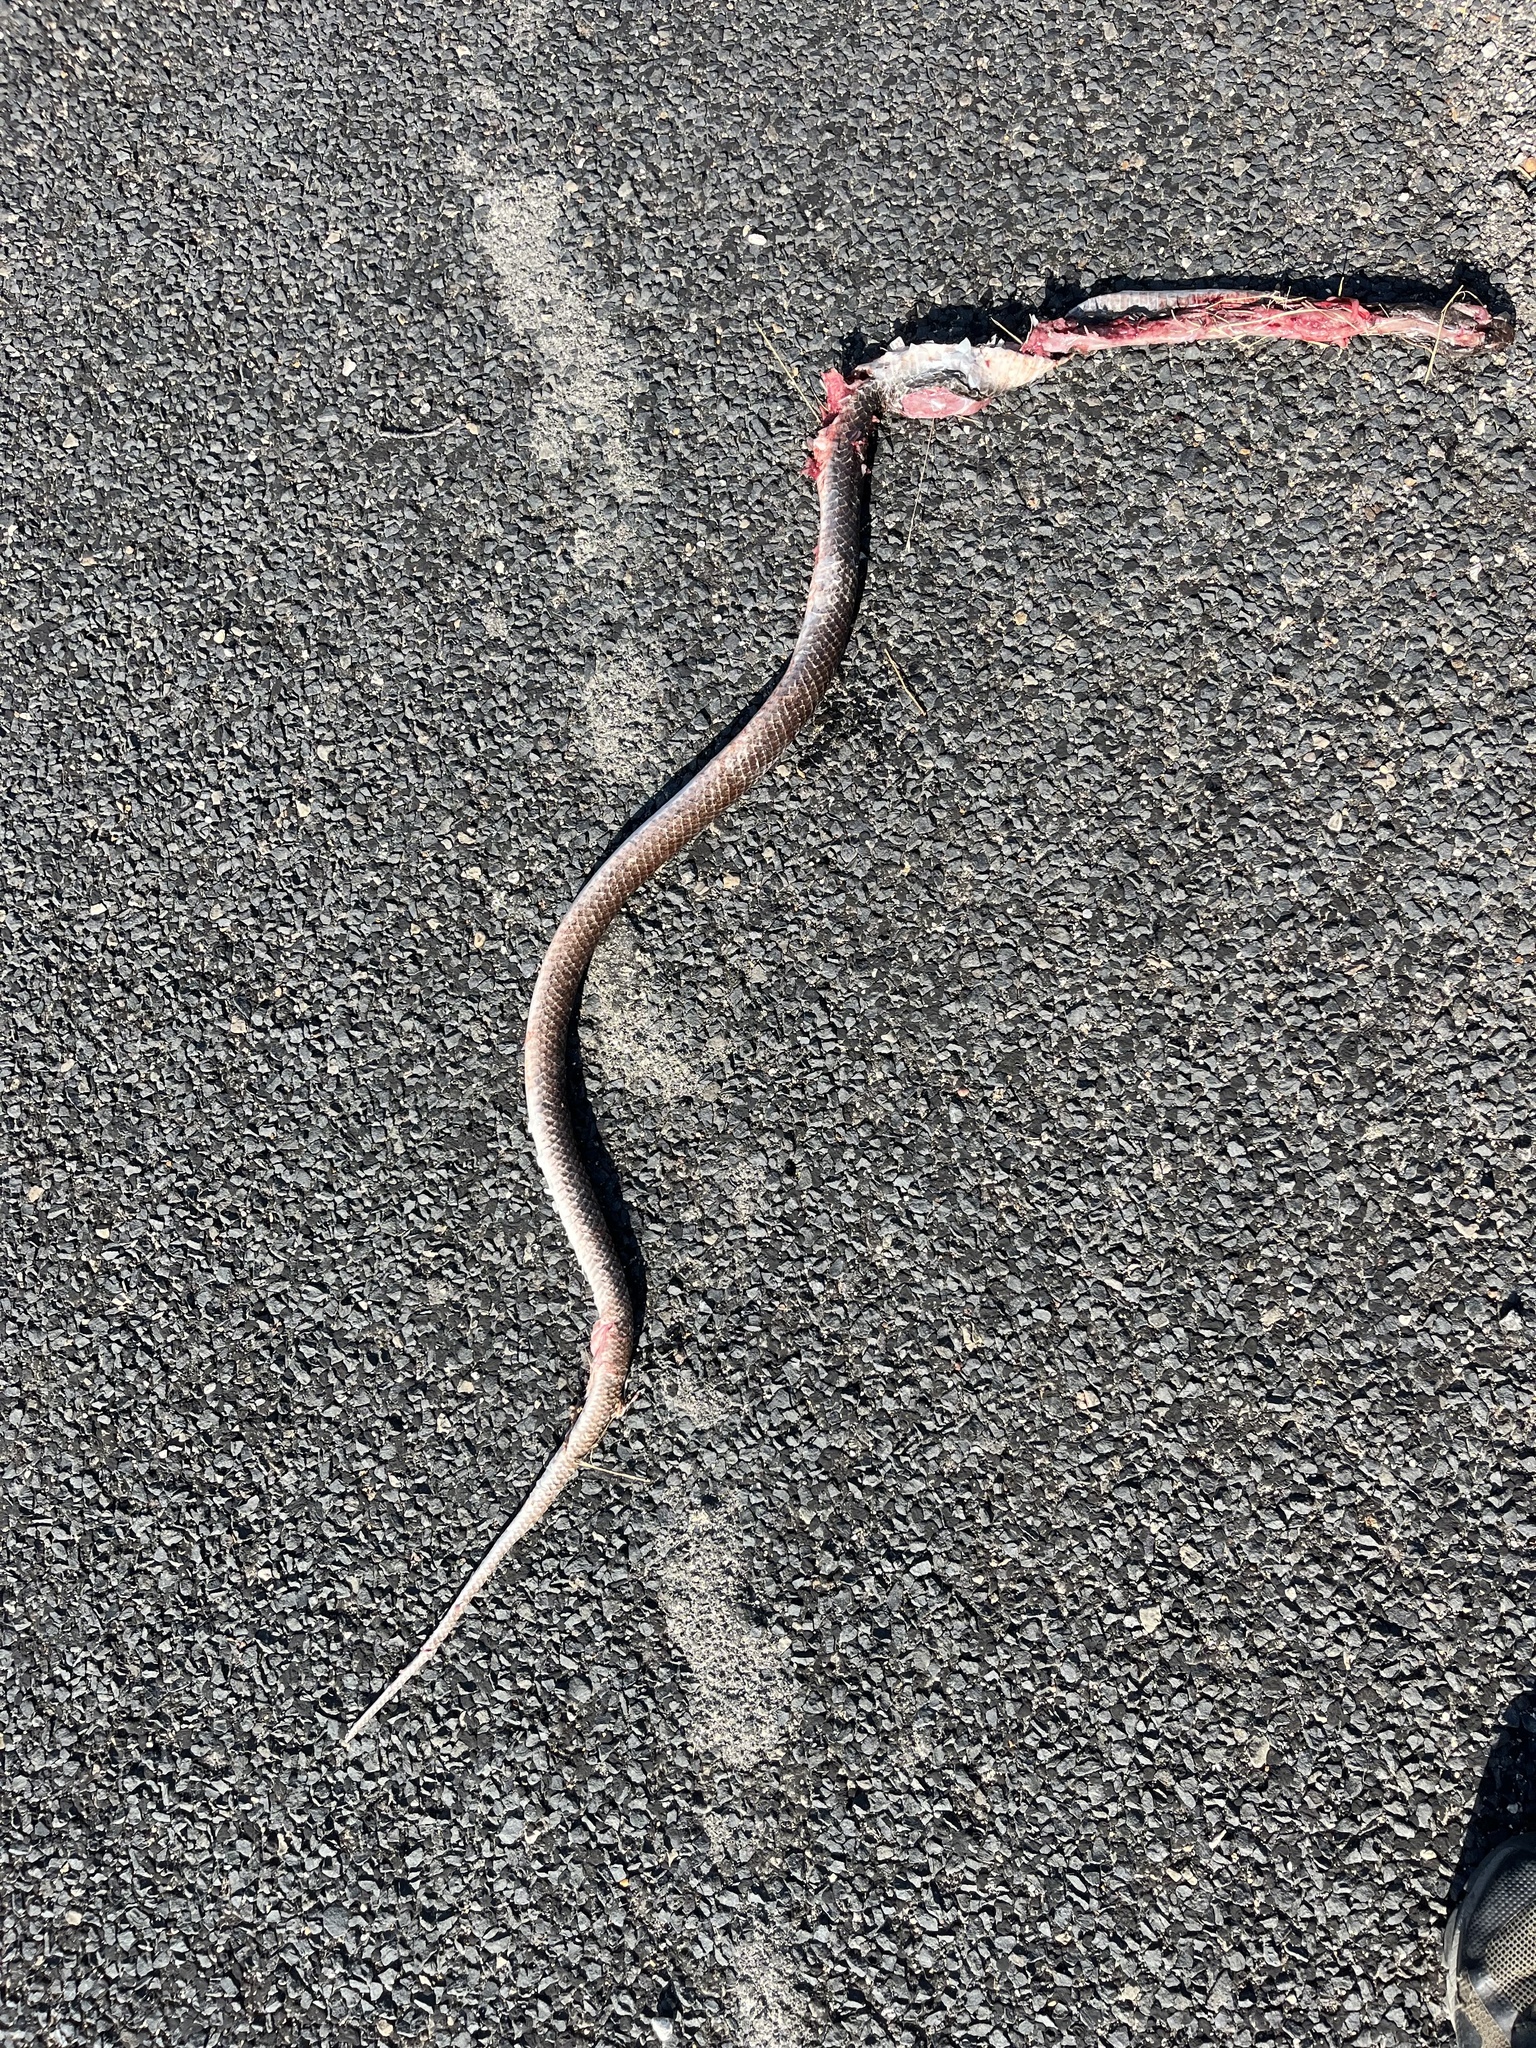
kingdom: Animalia
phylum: Chordata
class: Squamata
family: Colubridae
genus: Masticophis
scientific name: Masticophis flagellum
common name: Coachwhip
